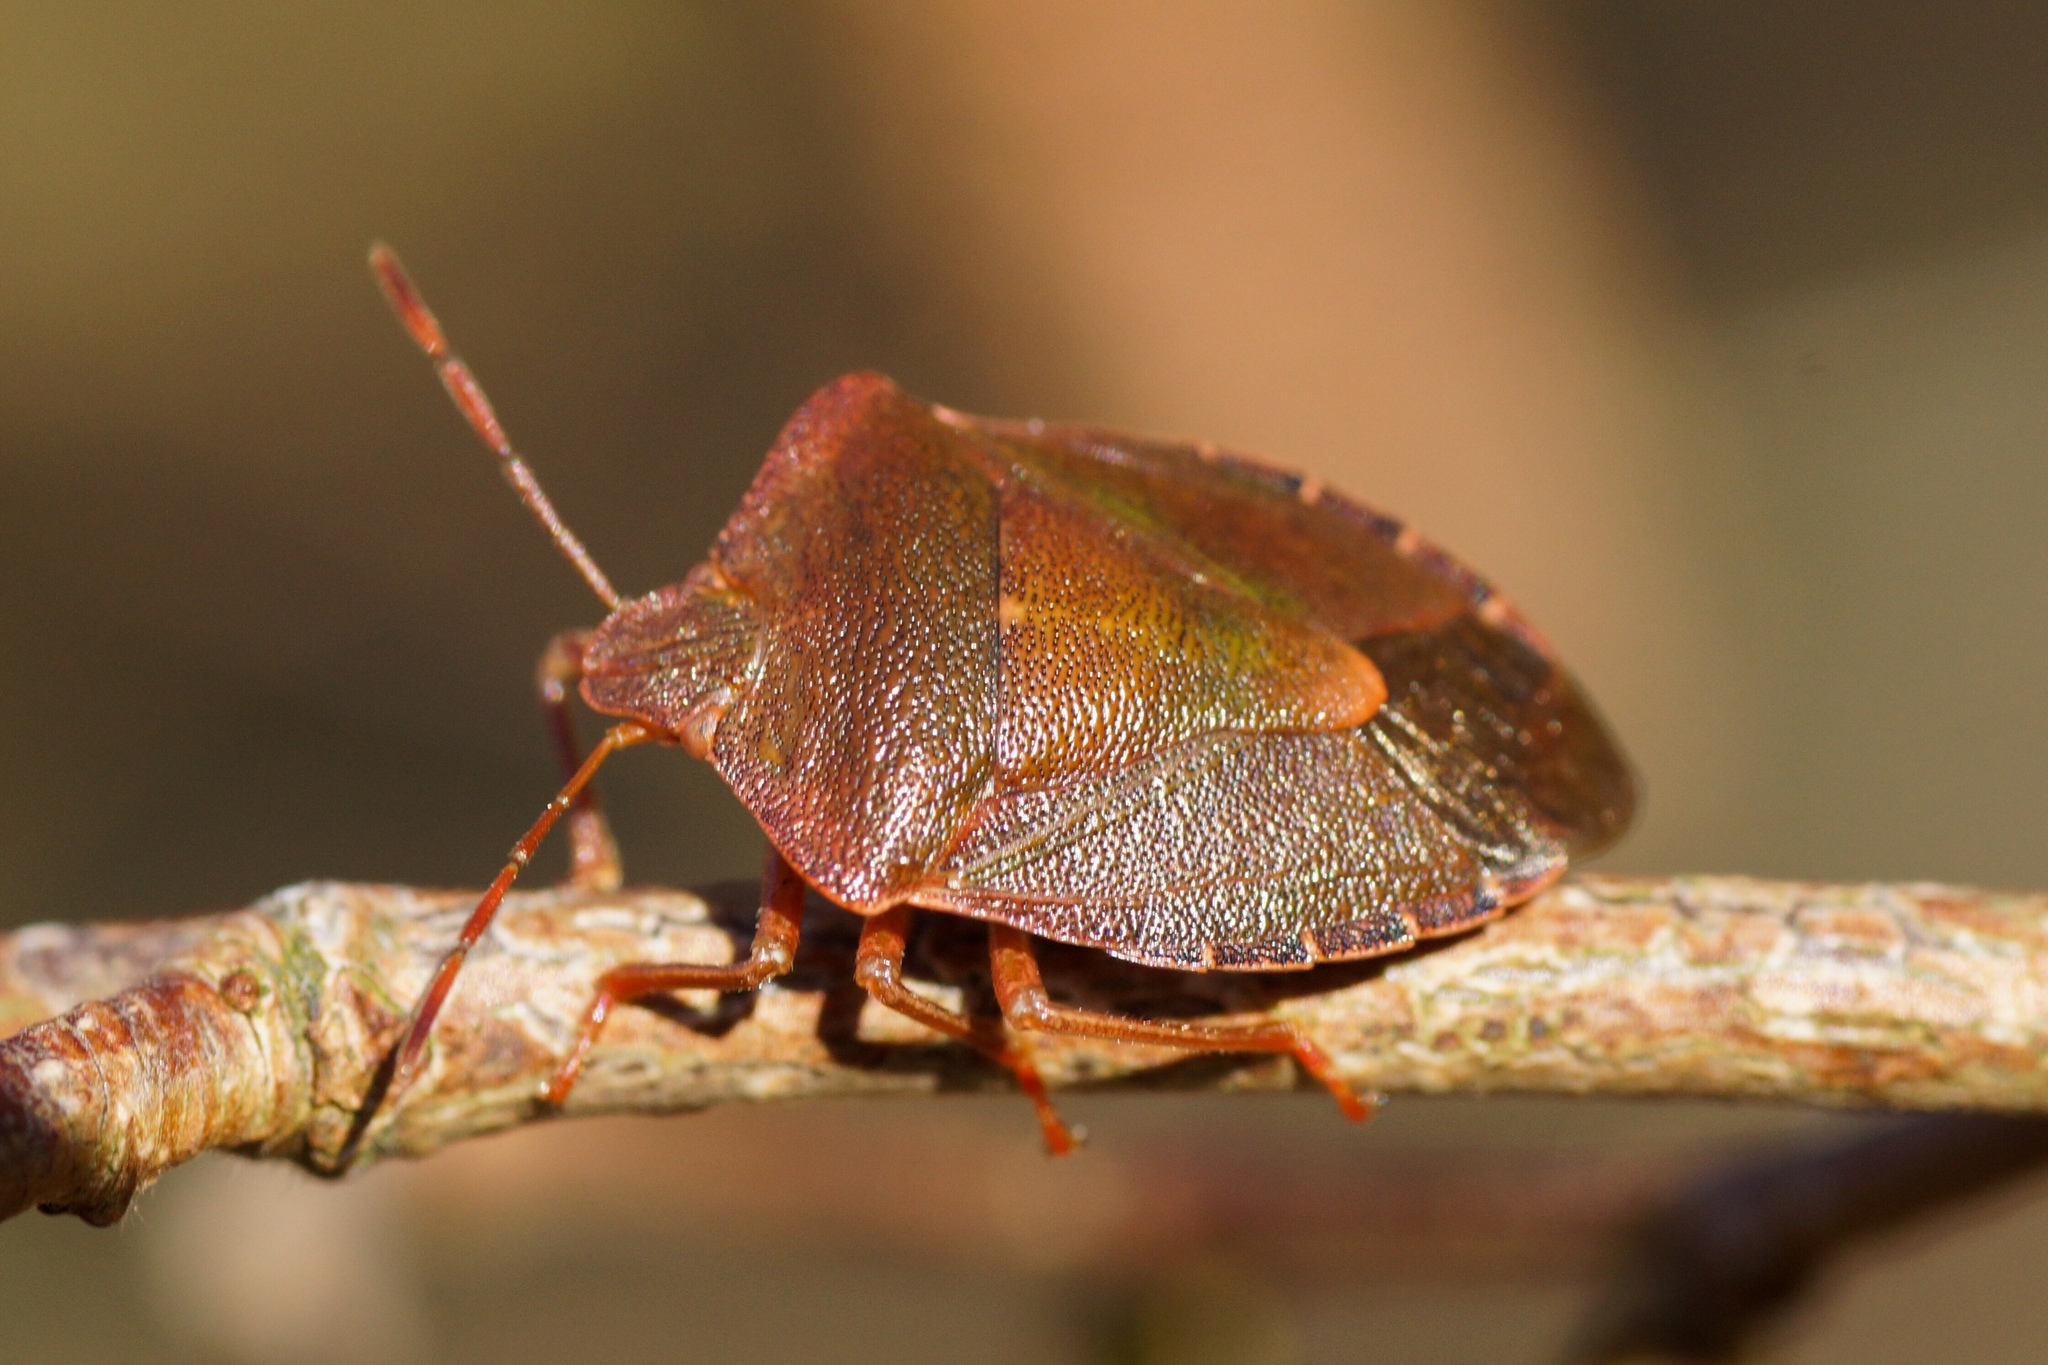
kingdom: Animalia
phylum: Arthropoda
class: Insecta
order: Hemiptera
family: Pentatomidae
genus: Palomena
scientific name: Palomena prasina
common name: Green shieldbug
